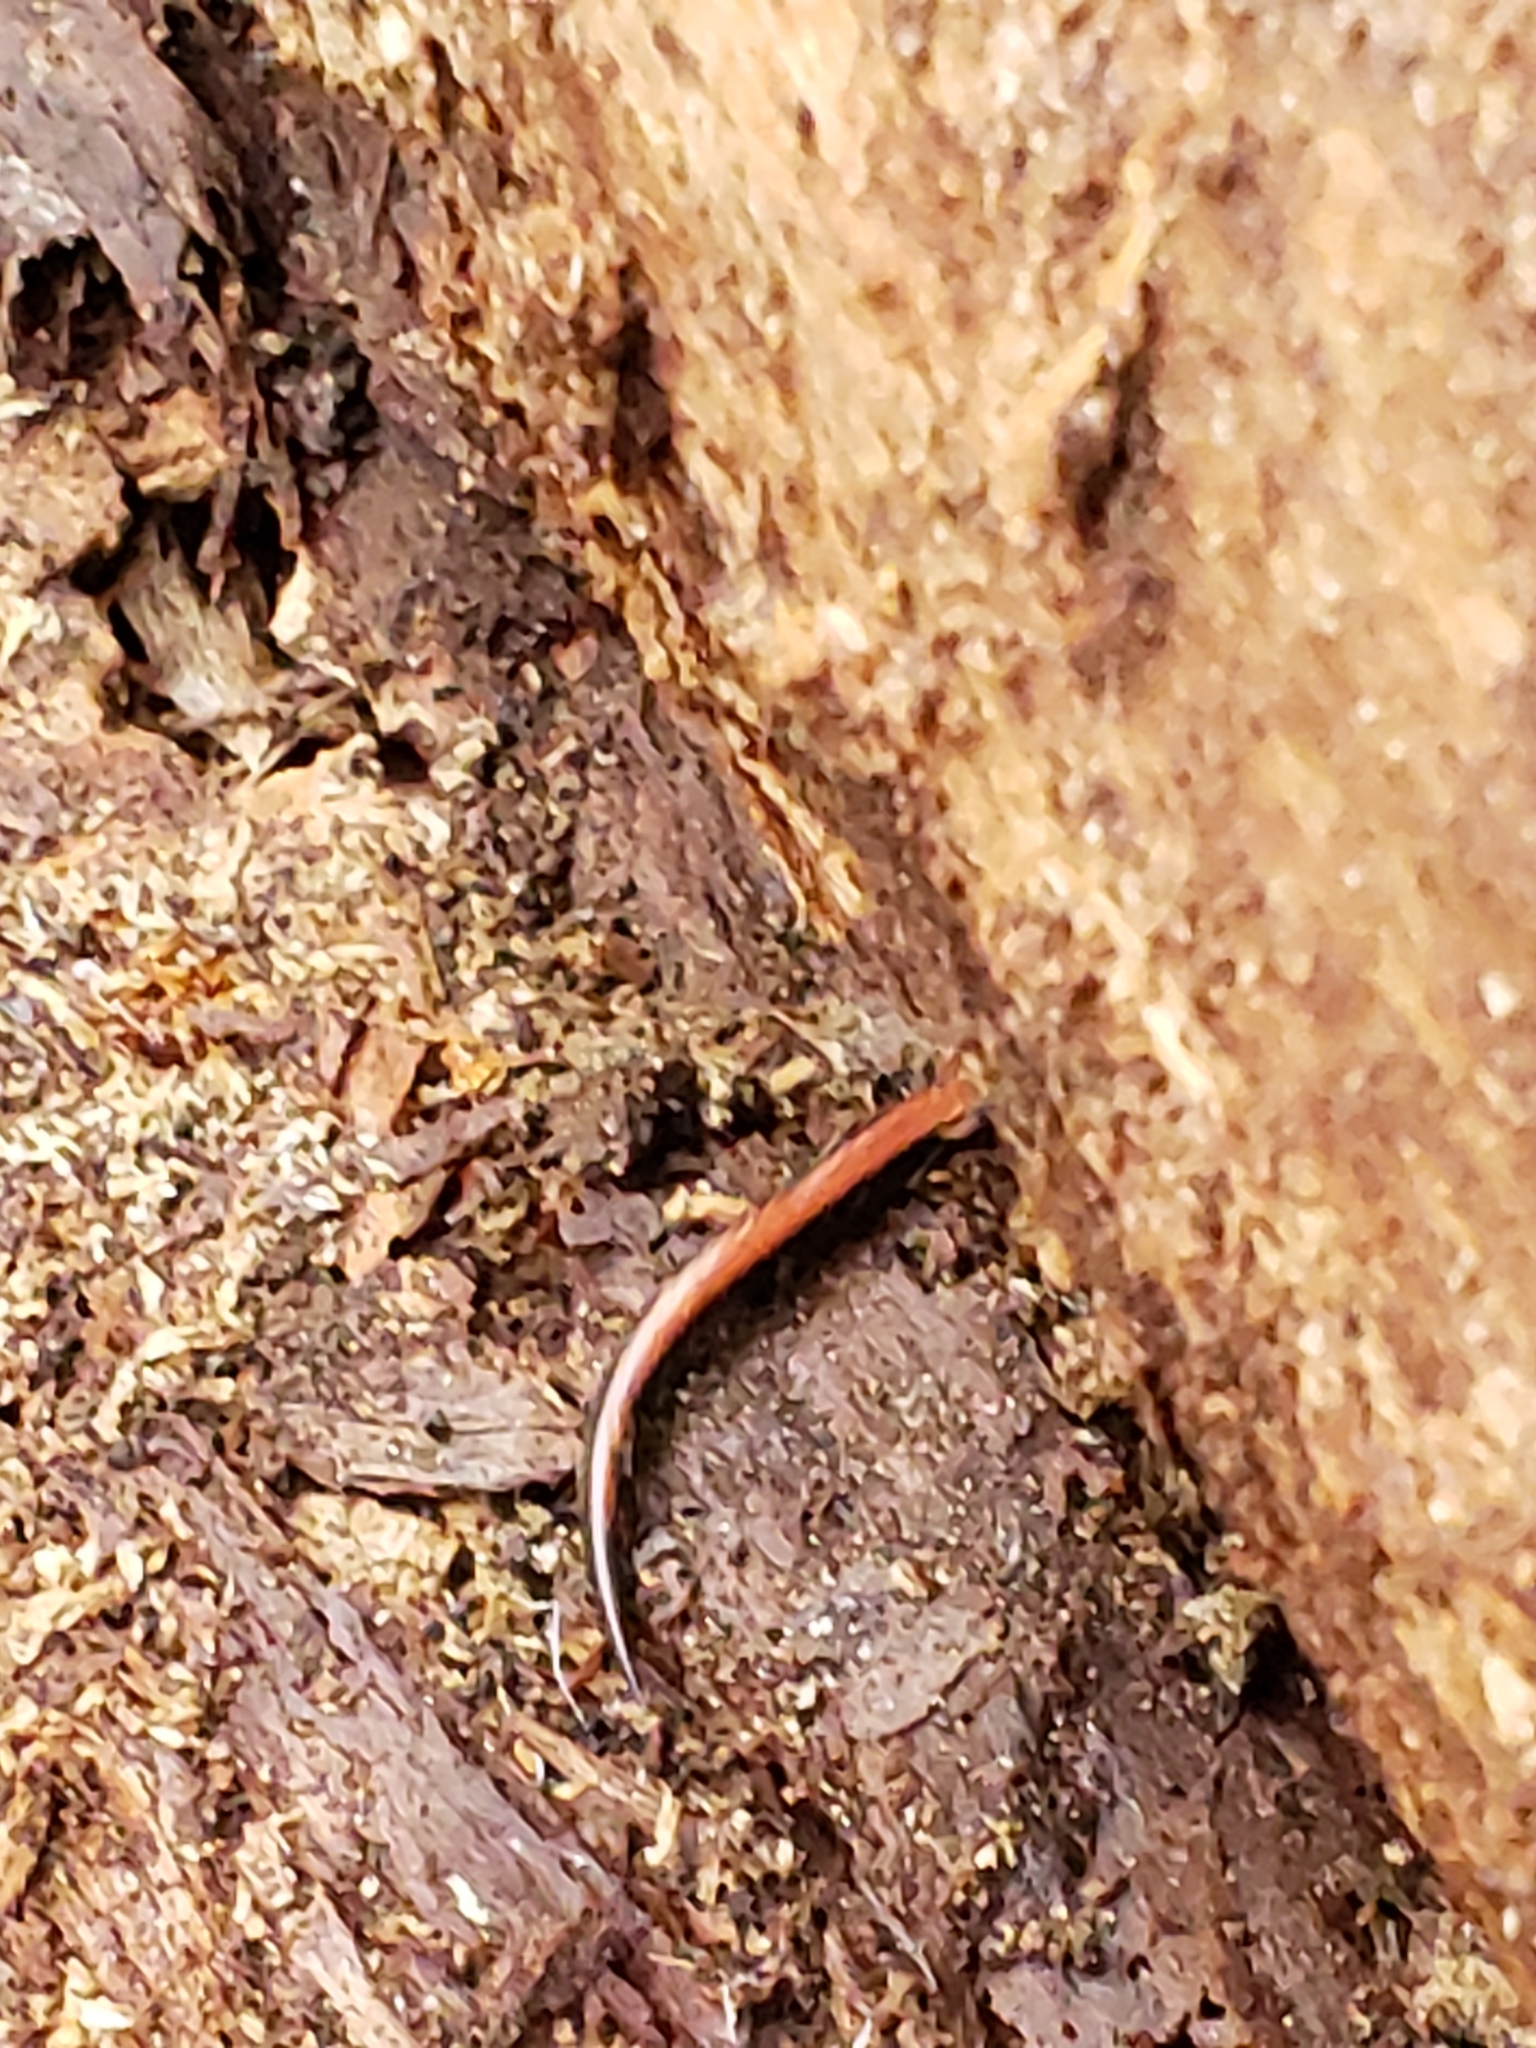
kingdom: Animalia
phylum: Chordata
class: Amphibia
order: Caudata
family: Plethodontidae
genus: Plethodon
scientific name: Plethodon cinereus
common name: Redback salamander
